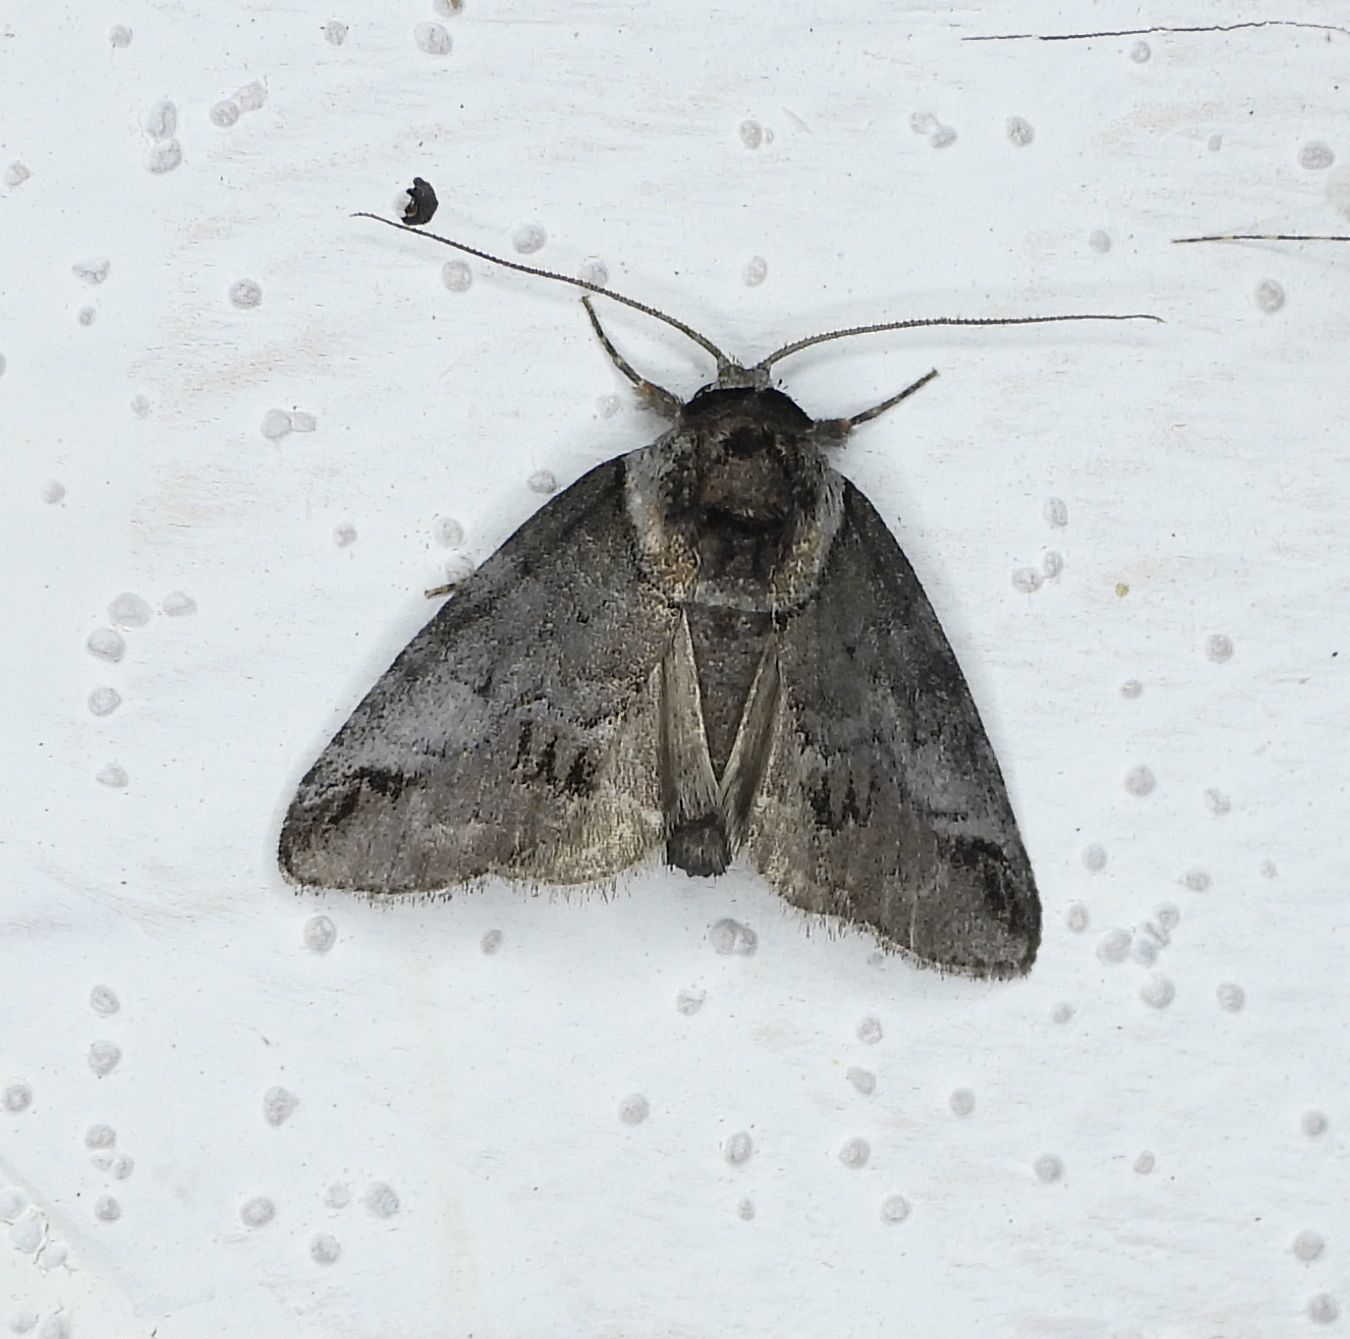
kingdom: Animalia
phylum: Arthropoda
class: Insecta
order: Lepidoptera
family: Nolidae
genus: Baileya
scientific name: Baileya australis
